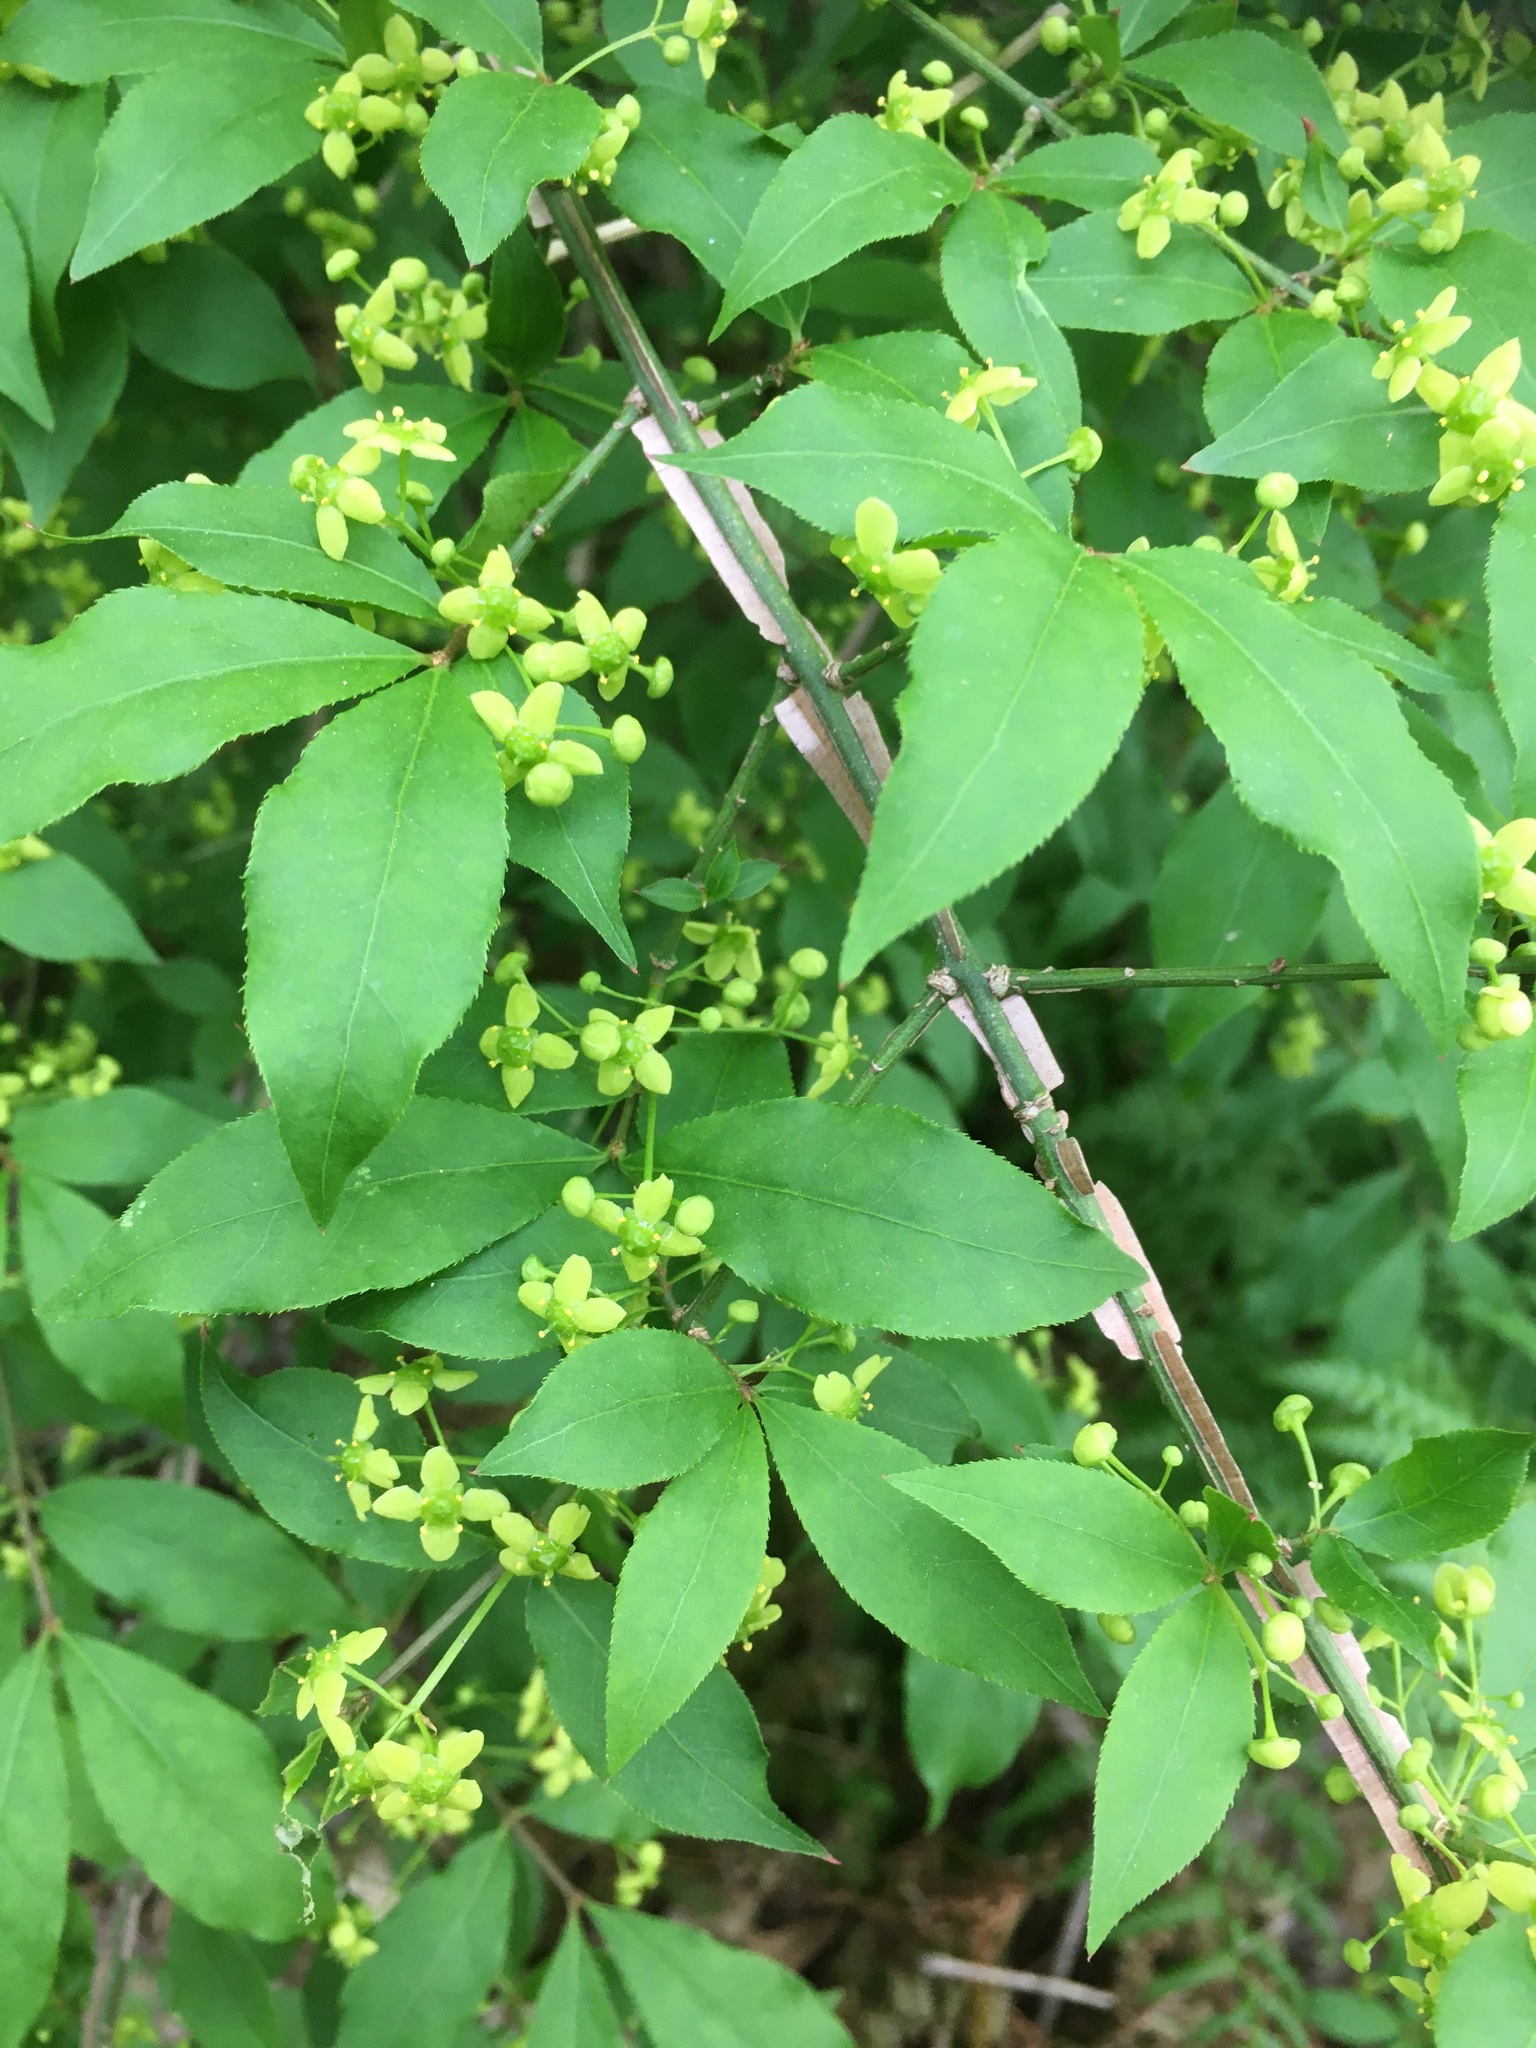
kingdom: Plantae
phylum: Tracheophyta
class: Magnoliopsida
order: Celastrales
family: Celastraceae
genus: Euonymus
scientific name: Euonymus alatus
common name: Winged euonymus
